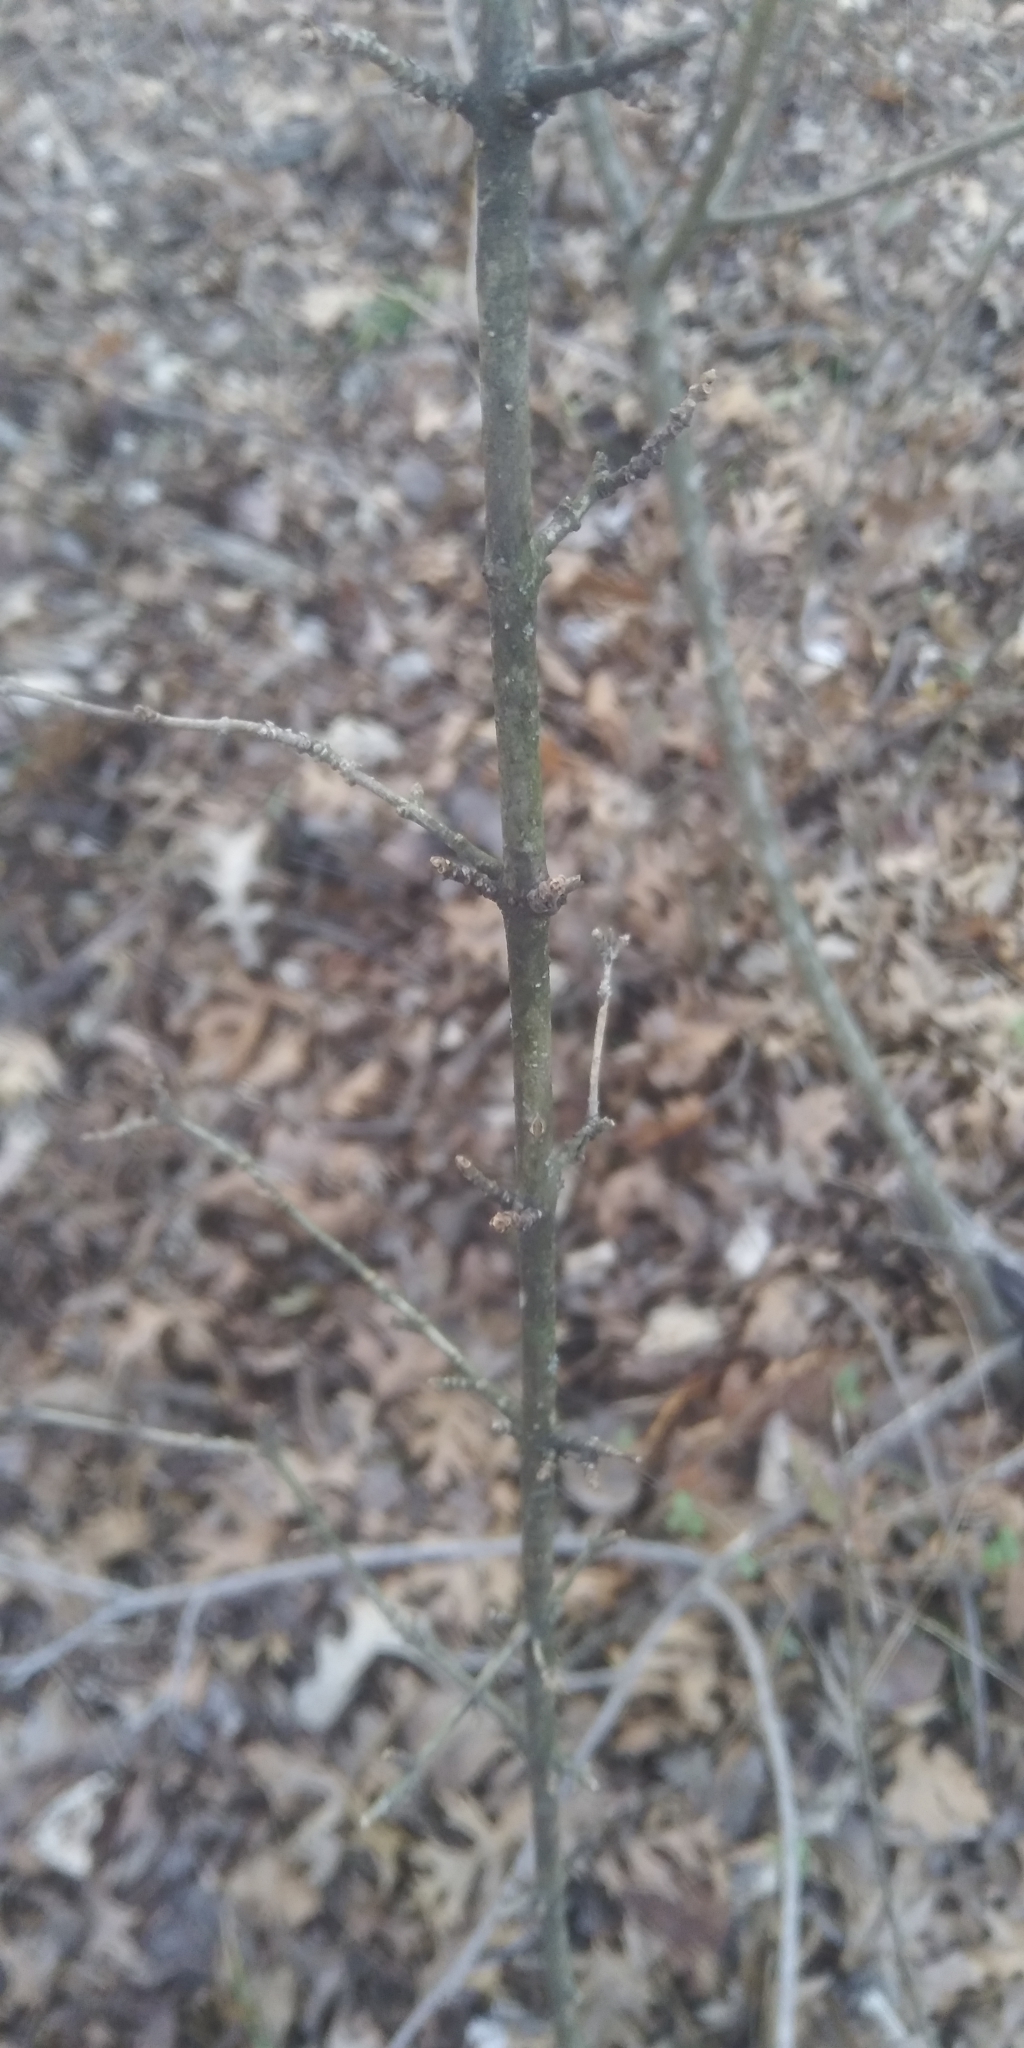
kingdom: Plantae
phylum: Tracheophyta
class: Magnoliopsida
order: Lamiales
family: Oleaceae
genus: Ligustrum
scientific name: Ligustrum quihoui
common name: Waxyleaf privet
